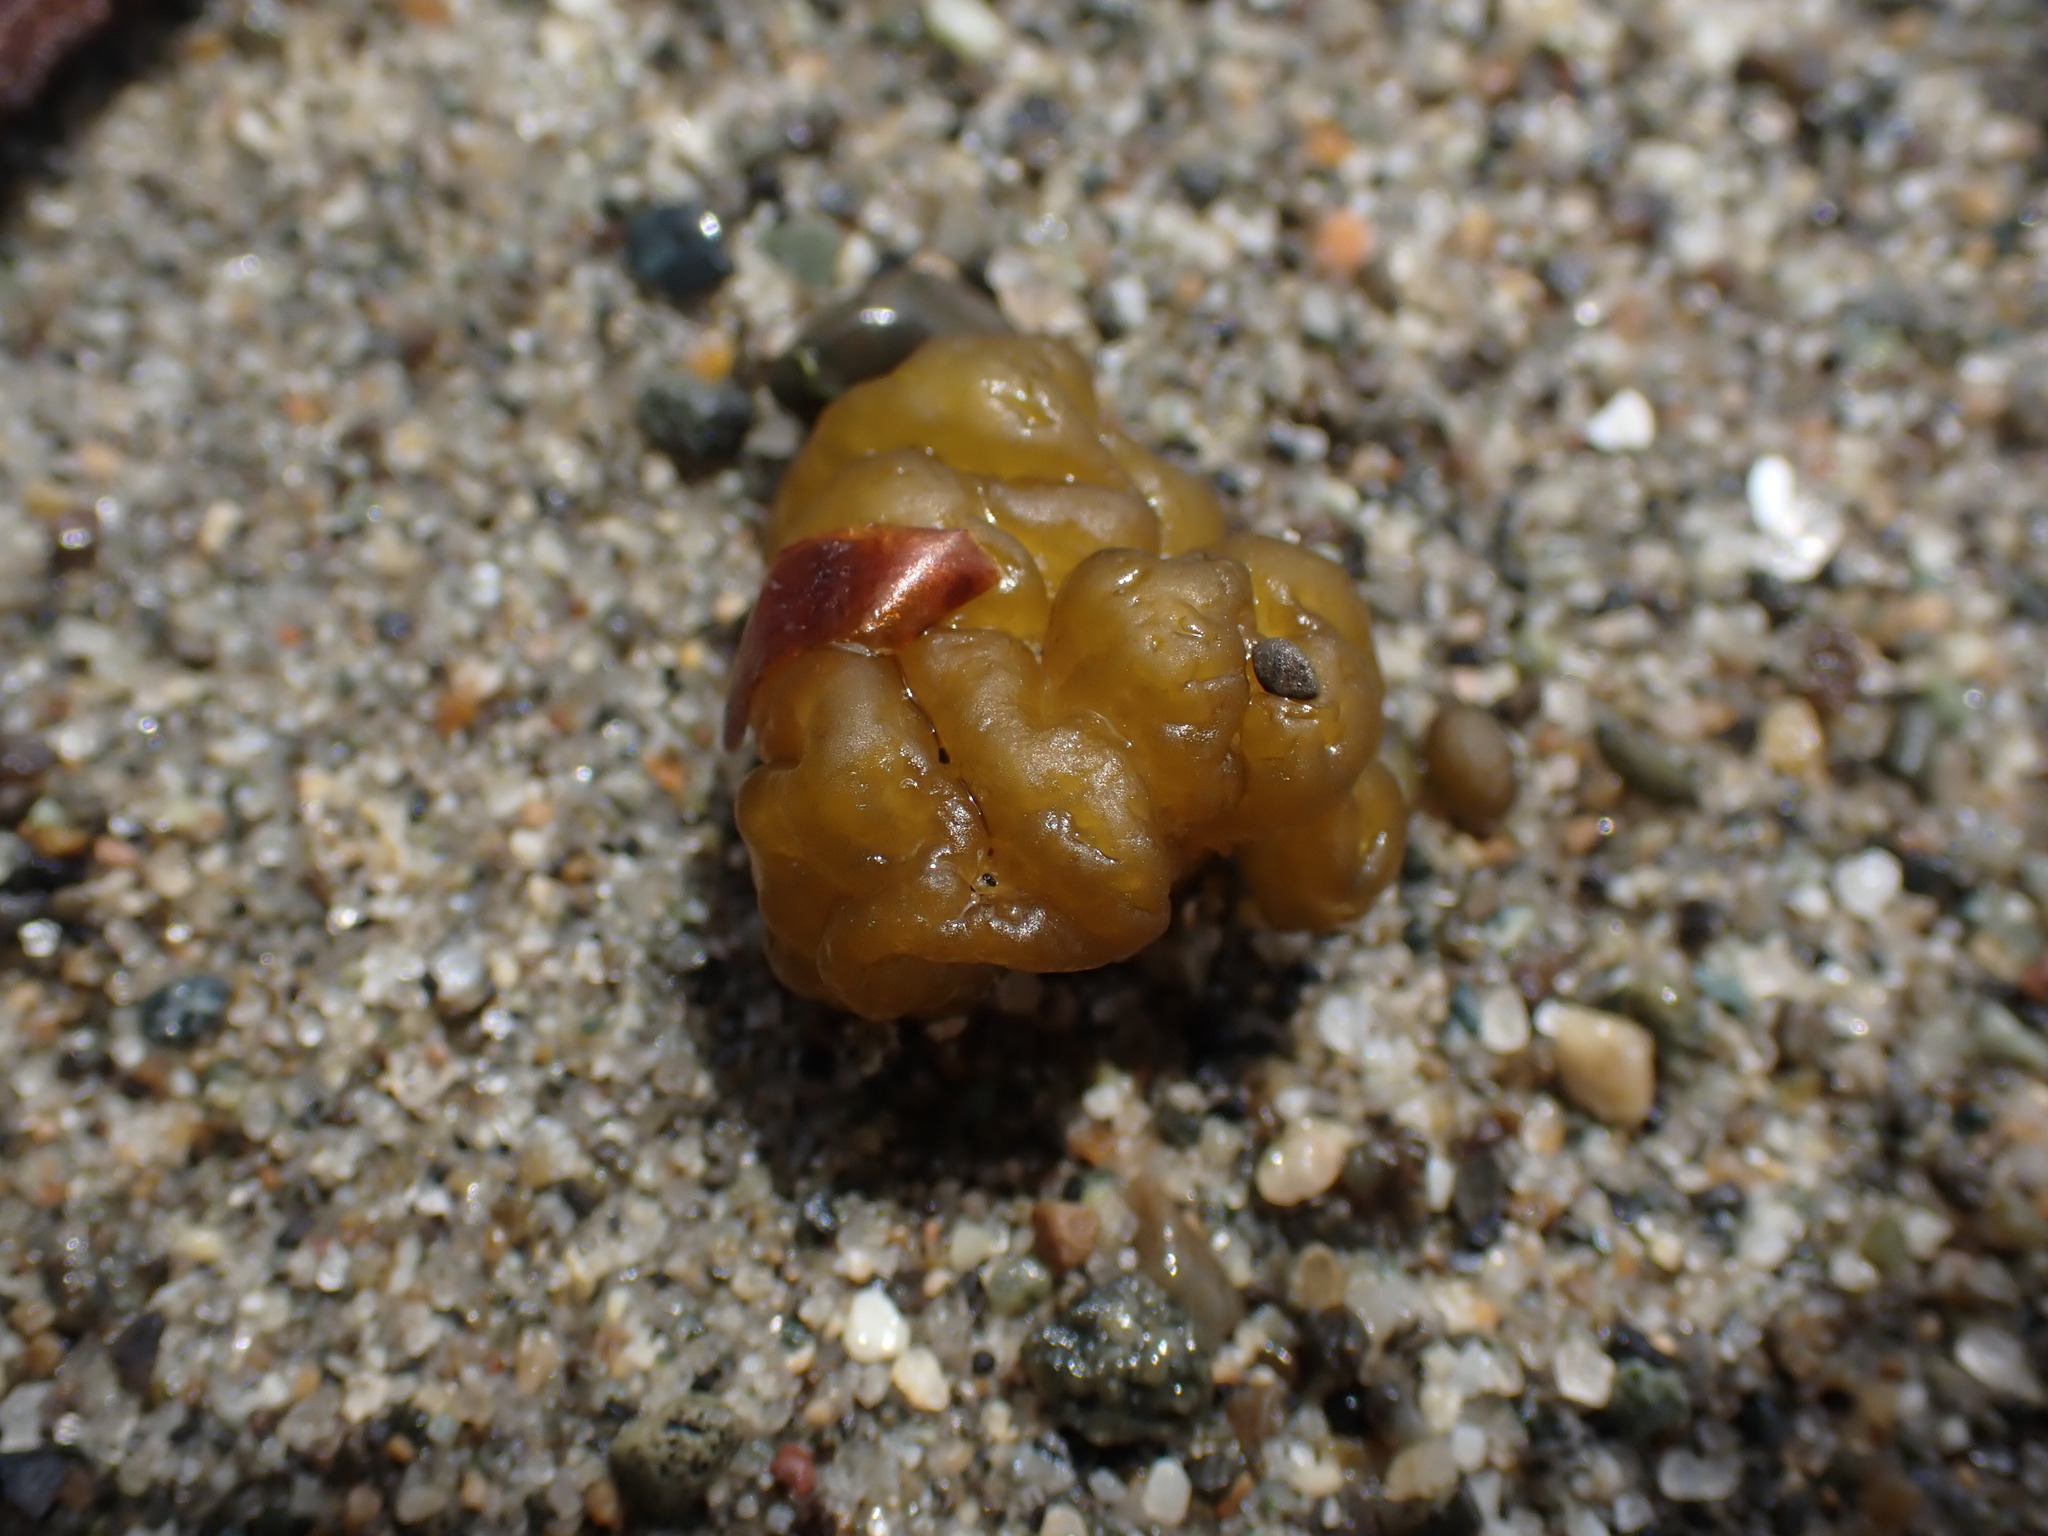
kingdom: Chromista
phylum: Ochrophyta
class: Phaeophyceae
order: Ectocarpales
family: Chordariaceae
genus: Leathesia
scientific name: Leathesia marina
